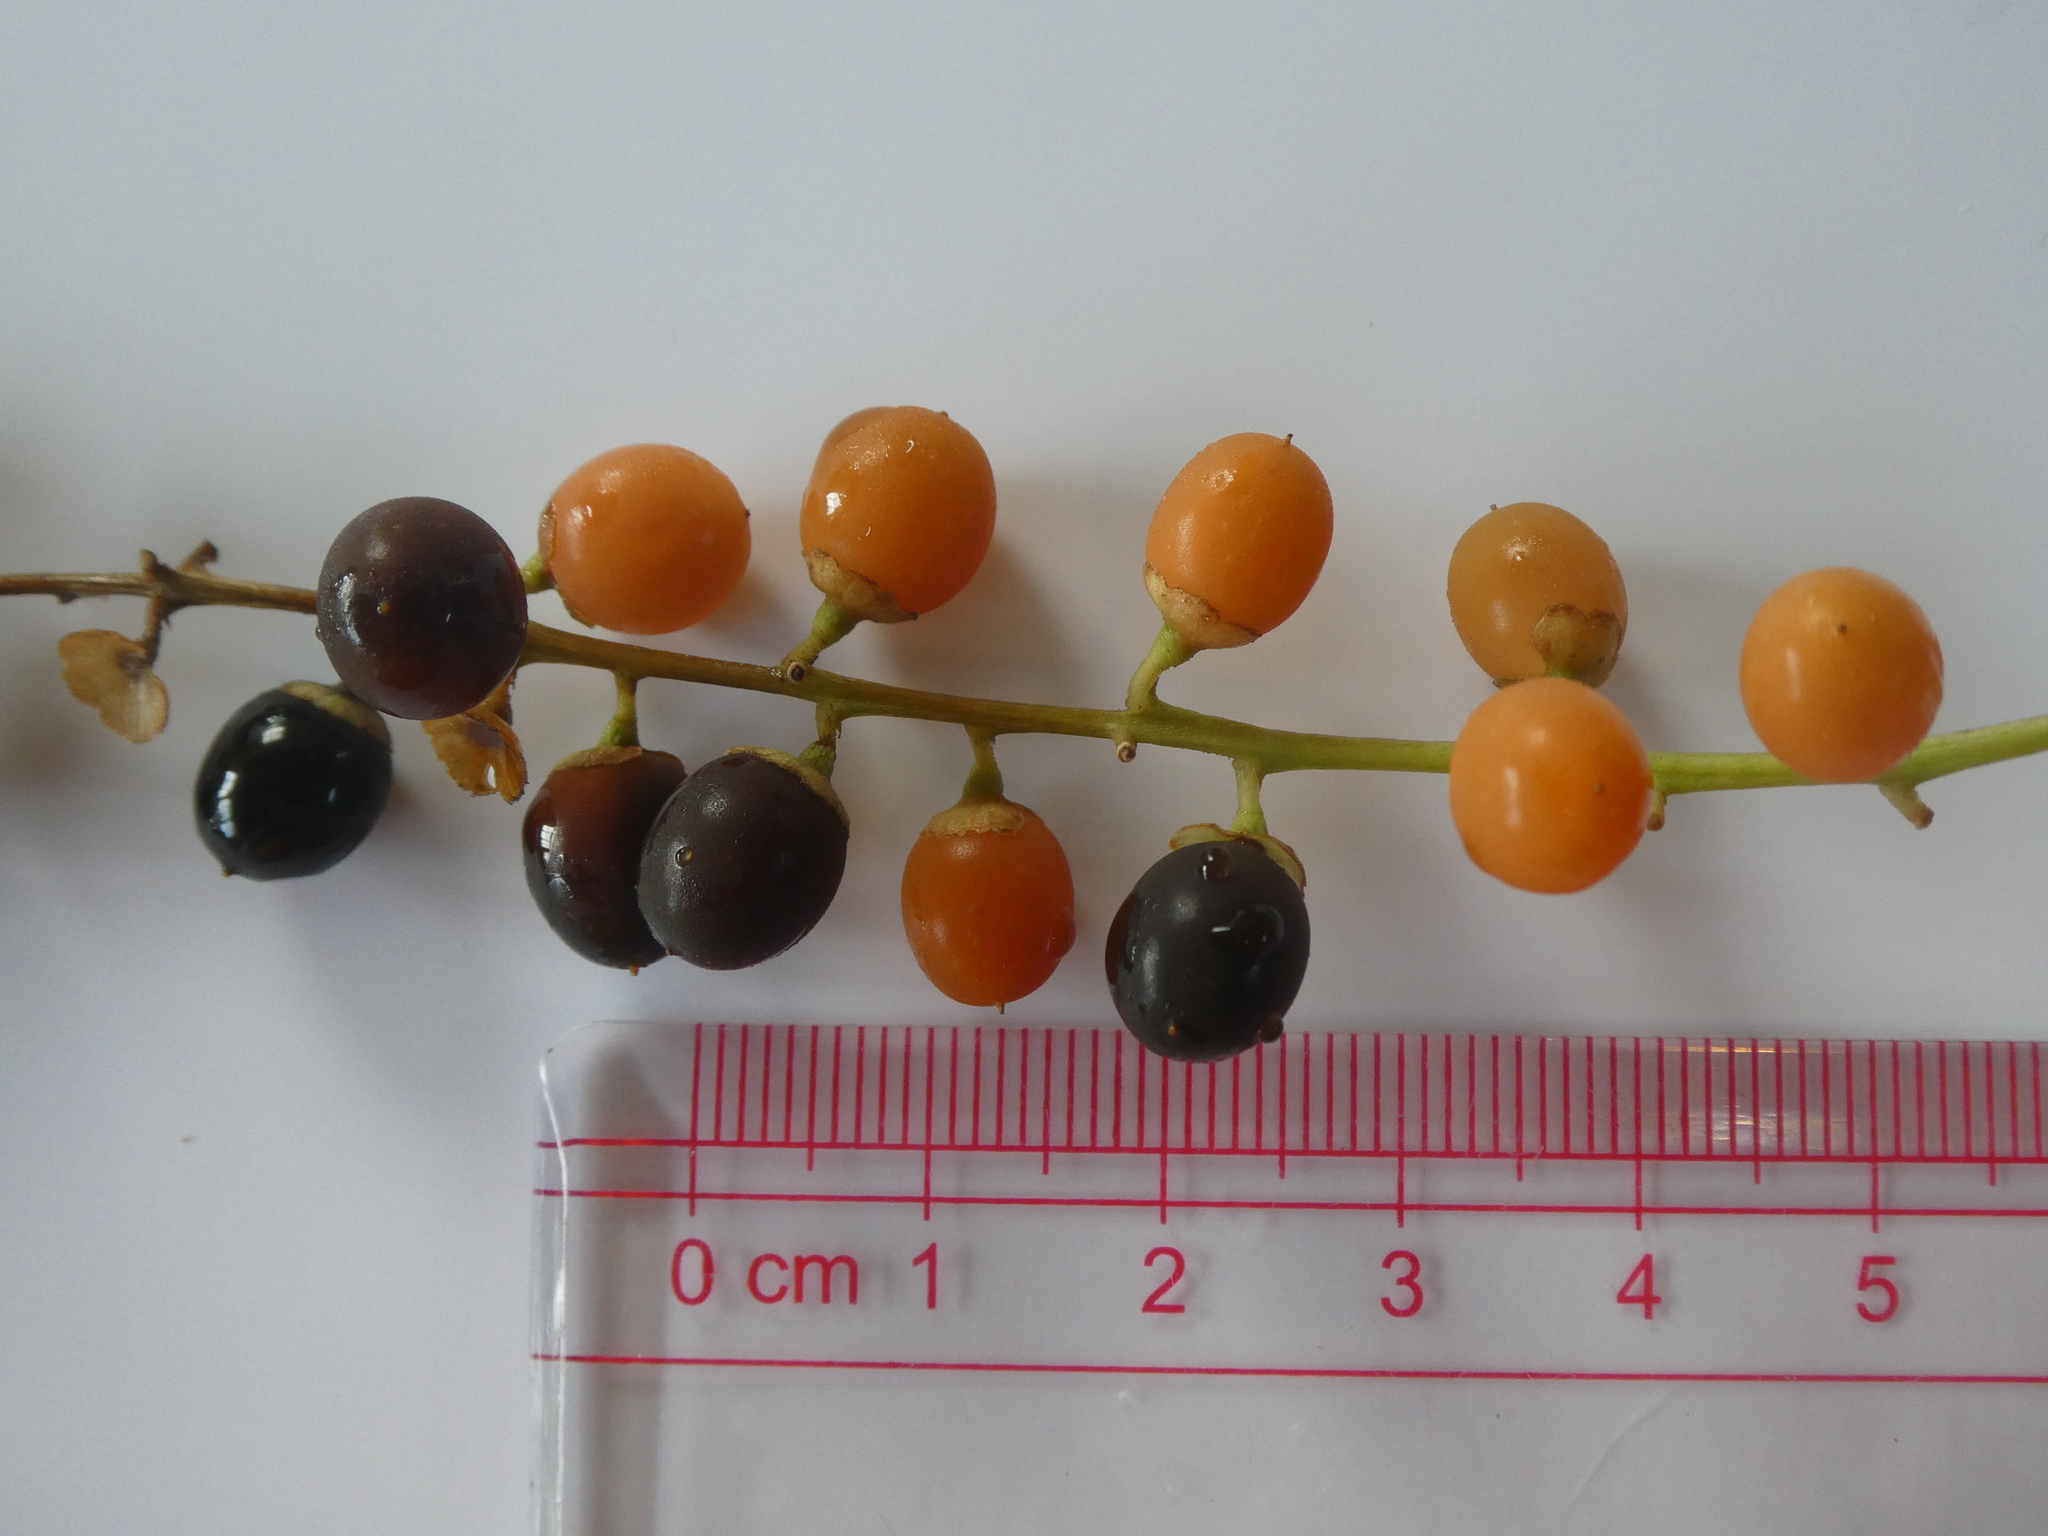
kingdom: Plantae
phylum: Tracheophyta
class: Magnoliopsida
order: Lamiales
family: Verbenaceae
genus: Citharexylum
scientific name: Citharexylum spinosum
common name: Fiddlewood
